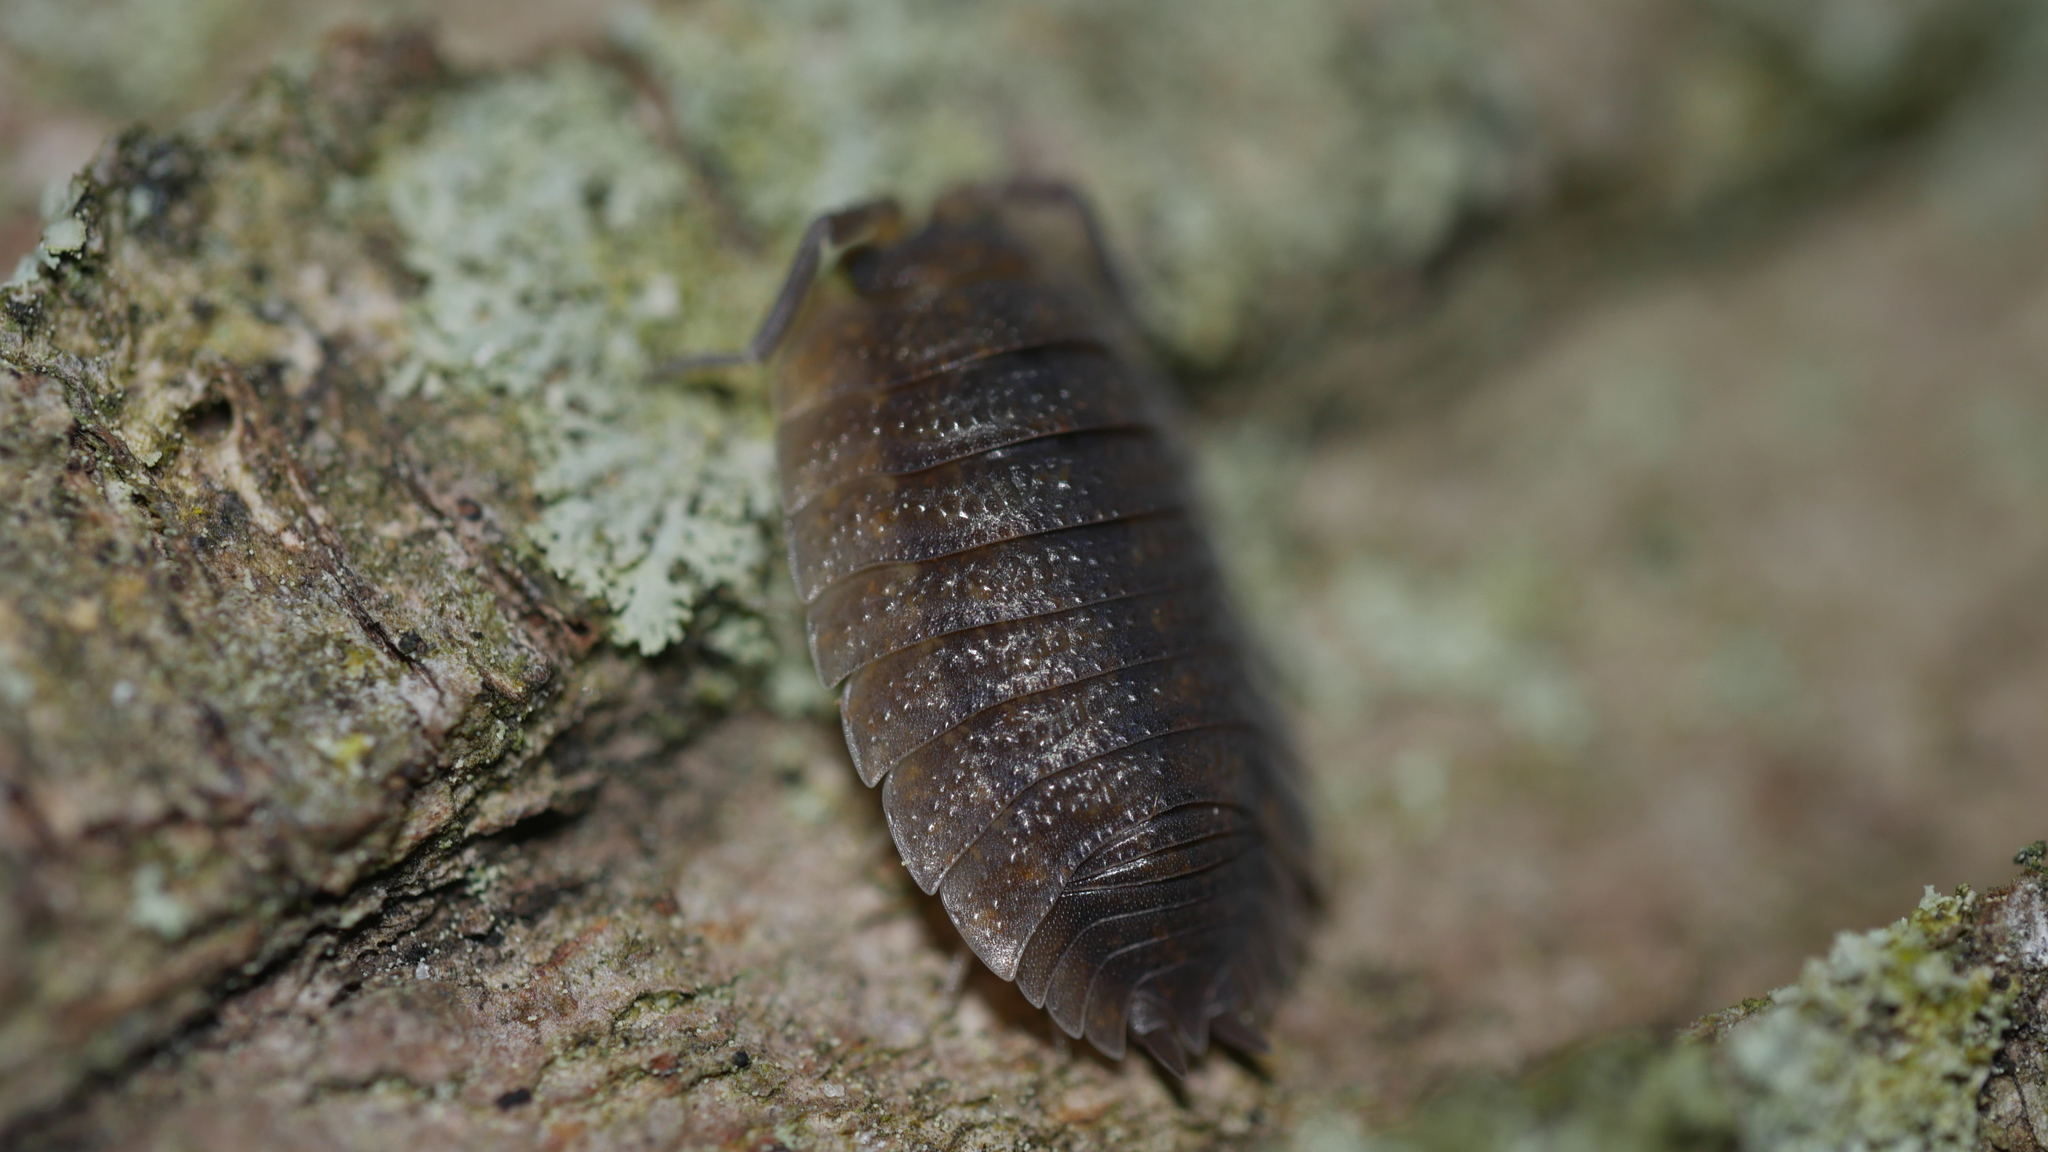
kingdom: Animalia
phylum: Arthropoda
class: Malacostraca
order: Isopoda
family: Porcellionidae
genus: Porcellio
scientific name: Porcellio scaber
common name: Common rough woodlouse
